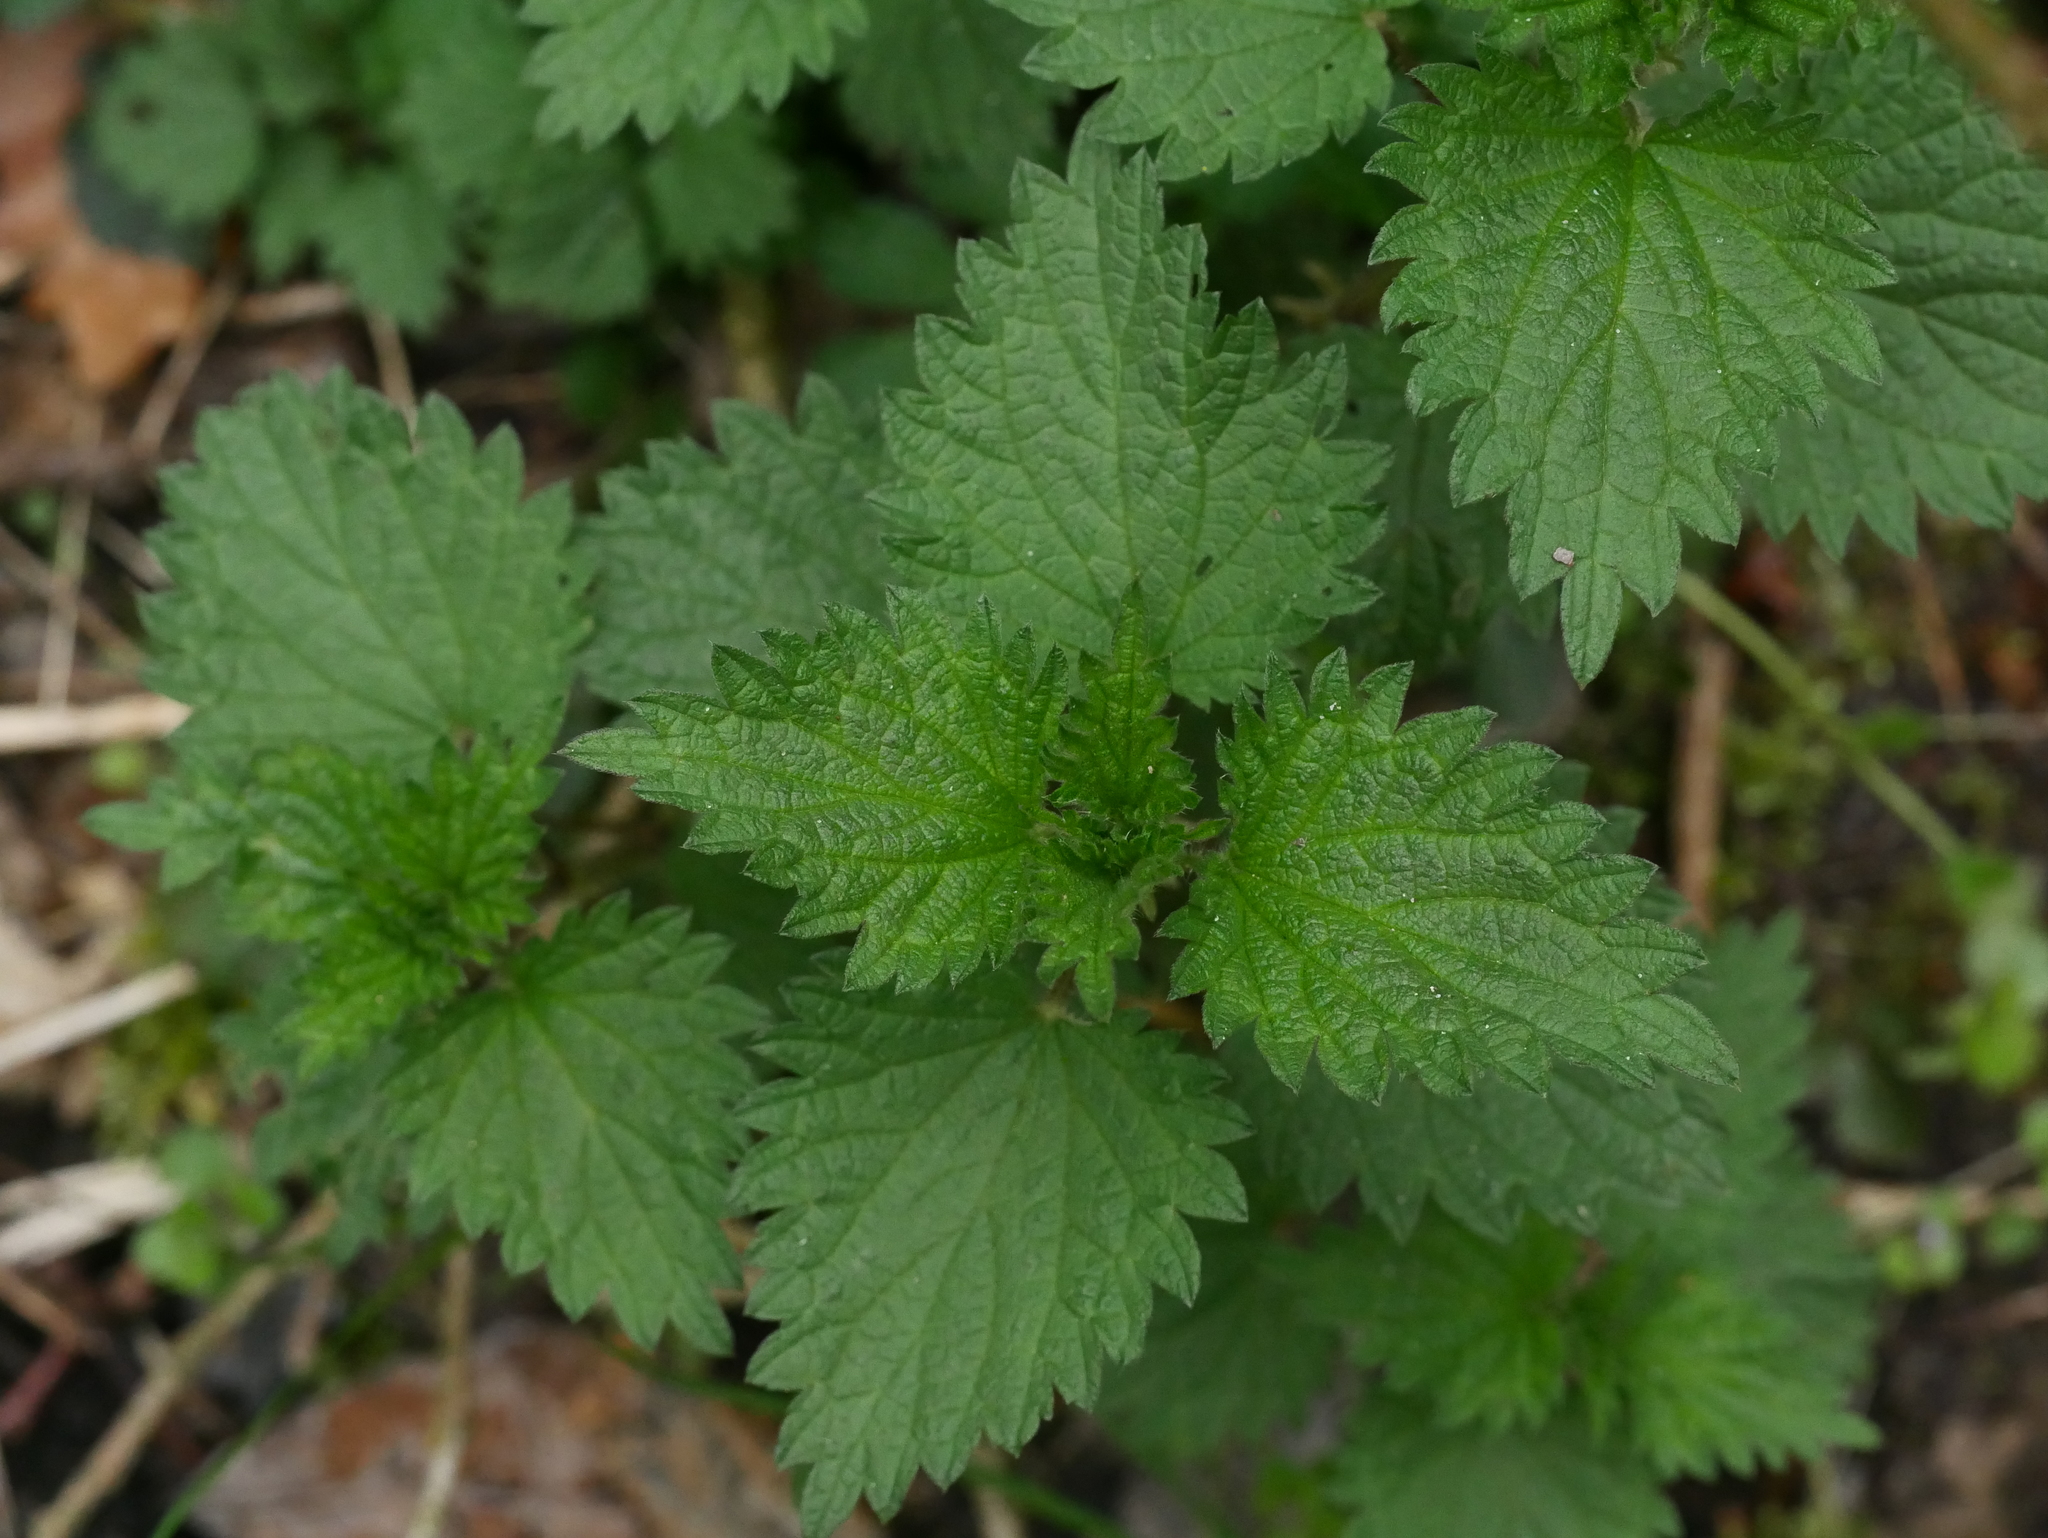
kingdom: Plantae
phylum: Tracheophyta
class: Magnoliopsida
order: Rosales
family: Urticaceae
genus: Urtica
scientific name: Urtica dioica
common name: Common nettle
